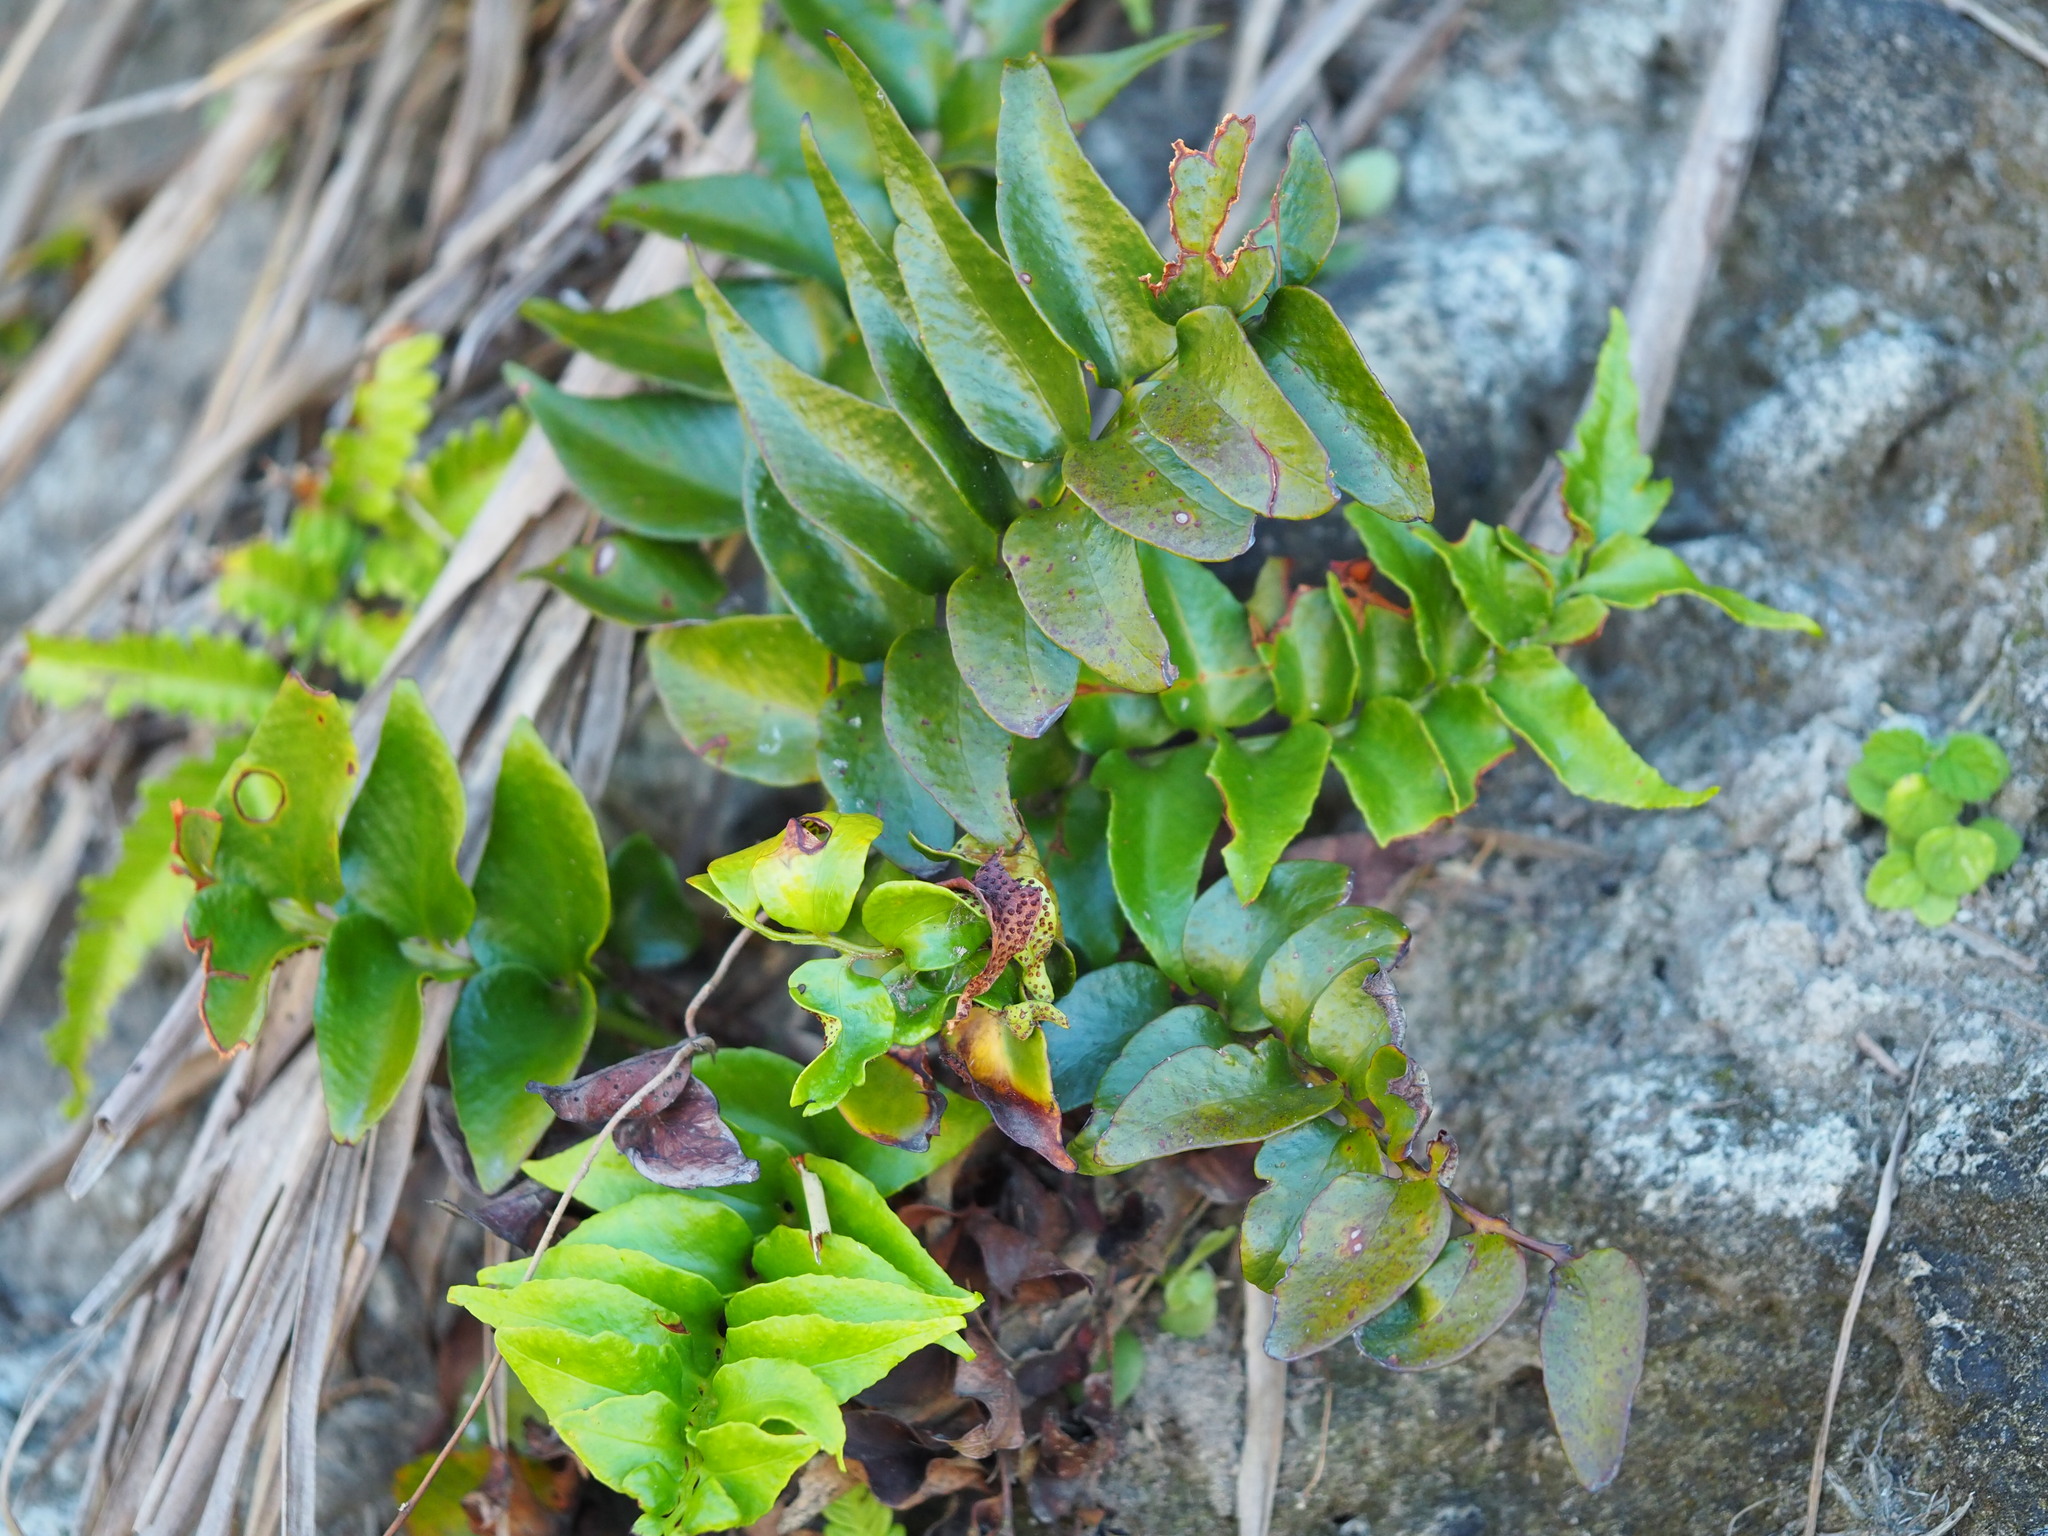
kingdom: Plantae
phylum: Tracheophyta
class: Polypodiopsida
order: Polypodiales
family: Dryopteridaceae
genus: Cyrtomium
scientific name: Cyrtomium falcatum
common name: House holly-fern
